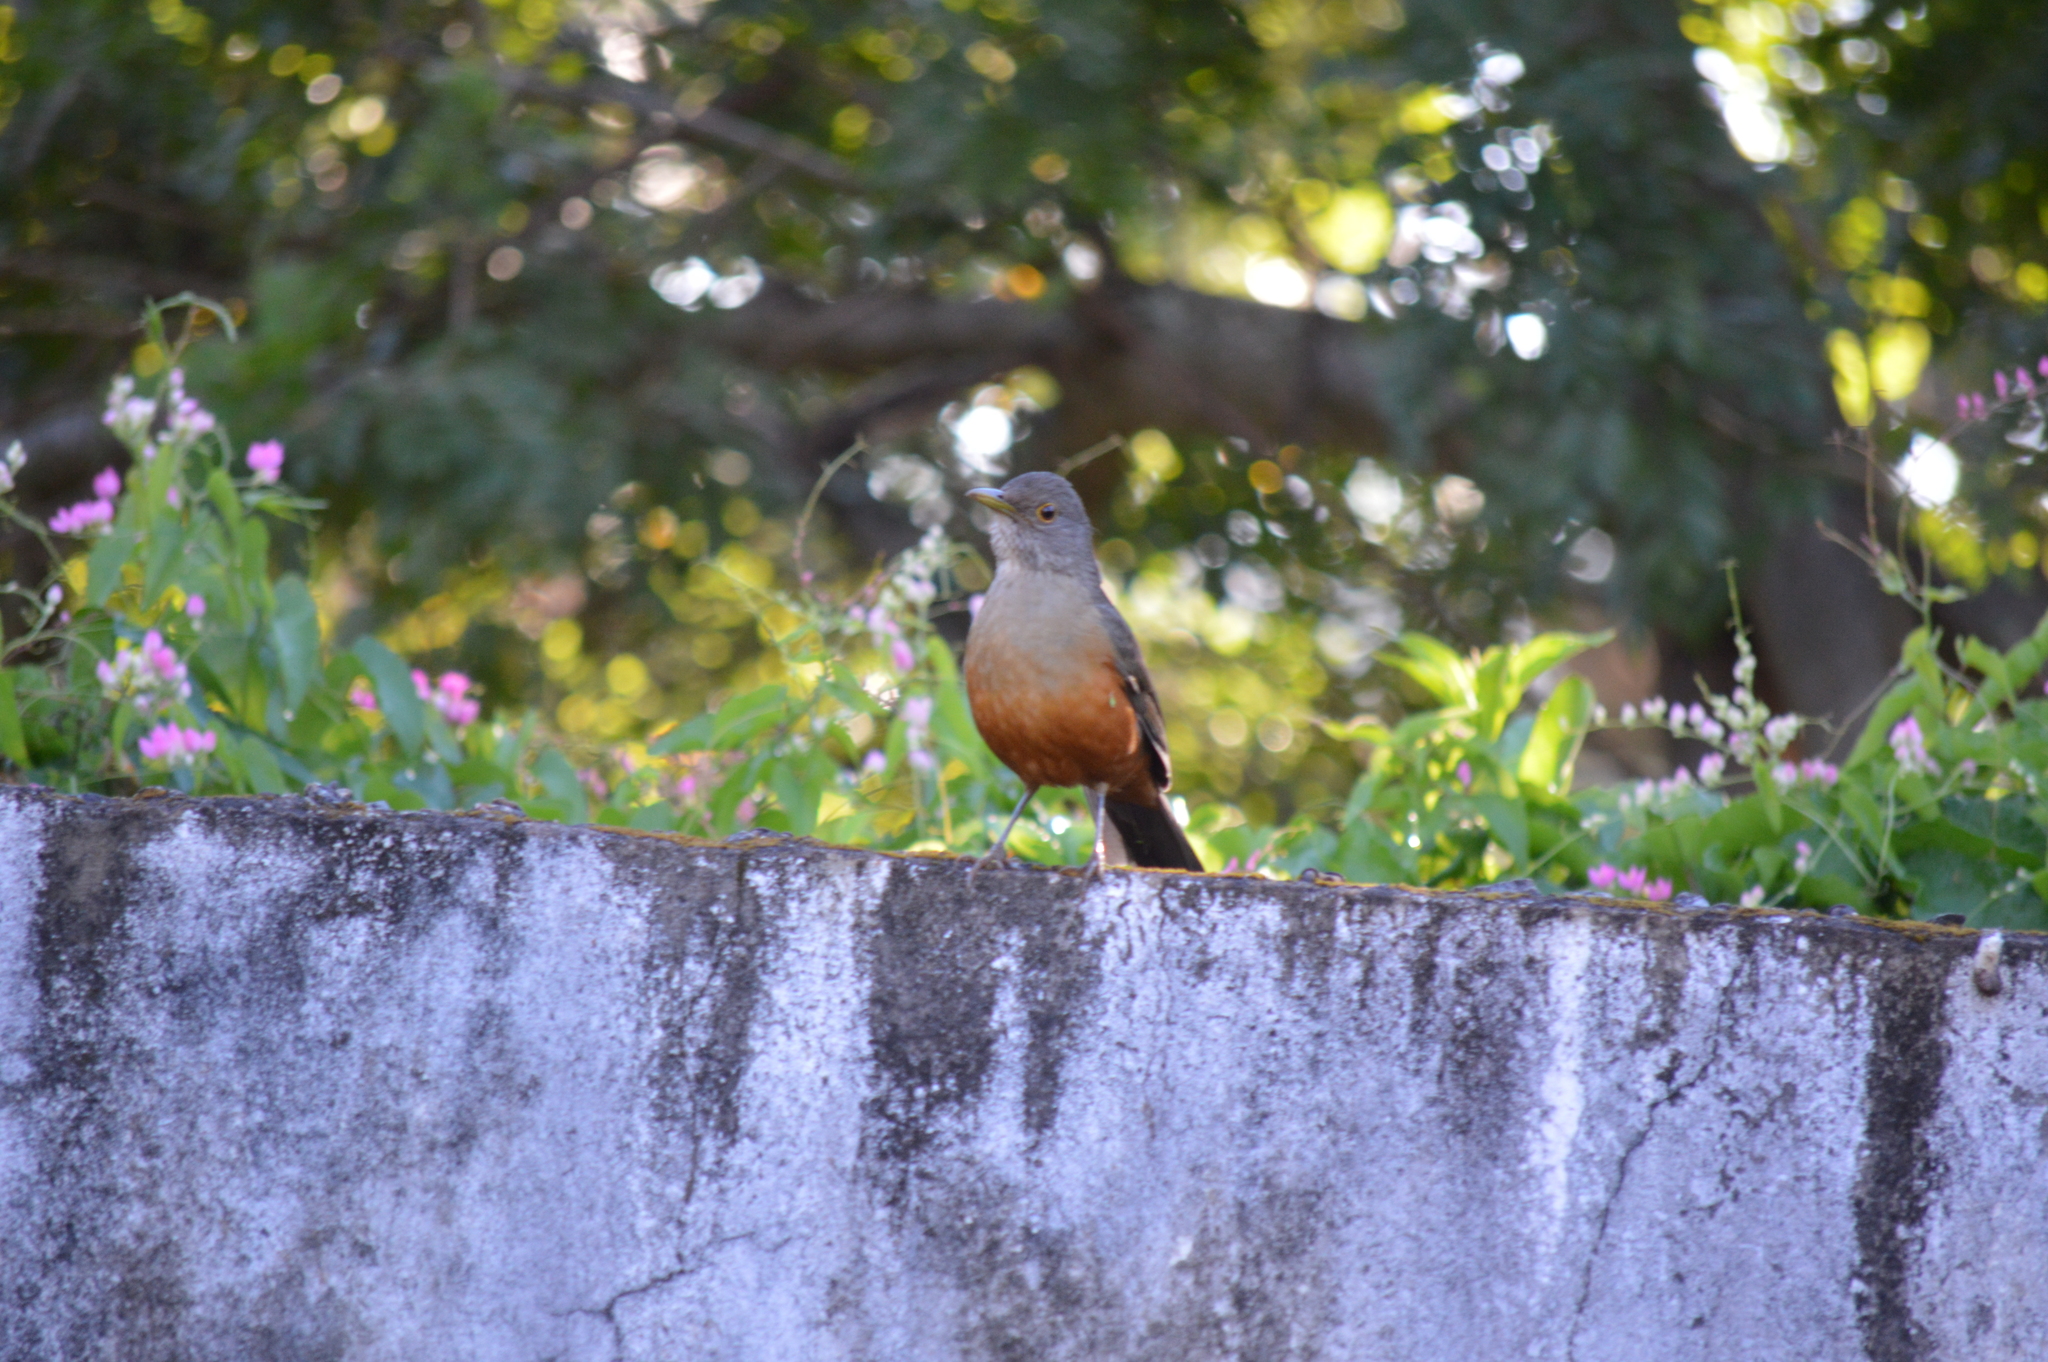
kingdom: Animalia
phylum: Chordata
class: Aves
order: Passeriformes
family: Turdidae
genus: Turdus
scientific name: Turdus rufiventris
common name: Rufous-bellied thrush
